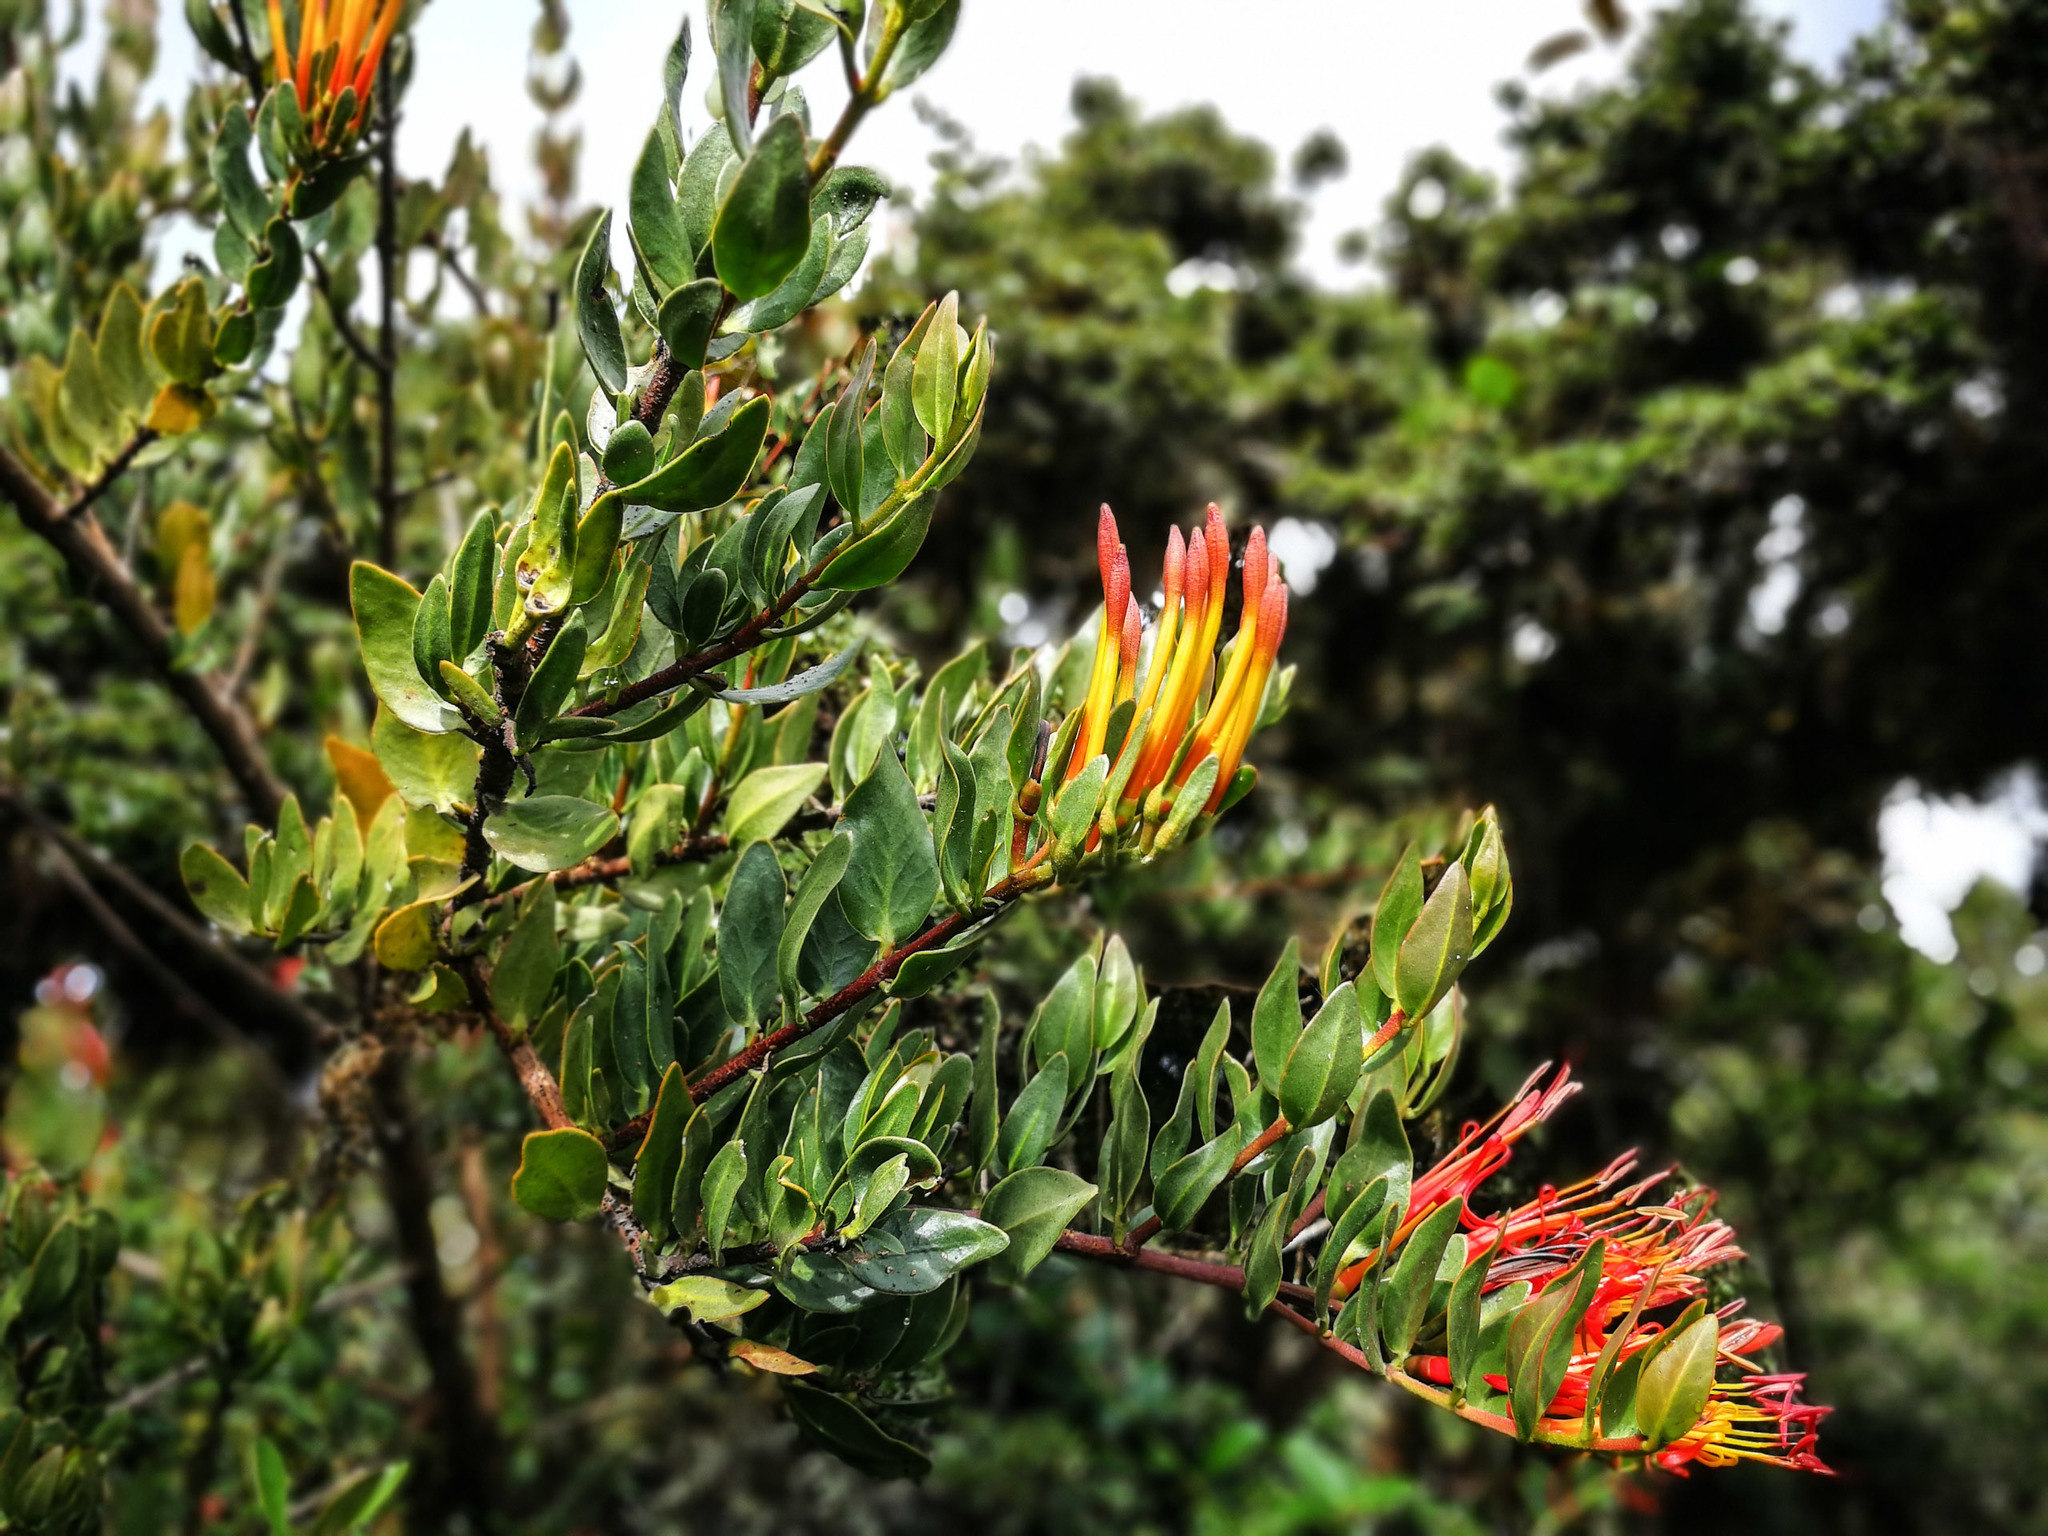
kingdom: Plantae
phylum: Tracheophyta
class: Magnoliopsida
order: Santalales
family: Loranthaceae
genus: Tristerix
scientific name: Tristerix longibracteatus
